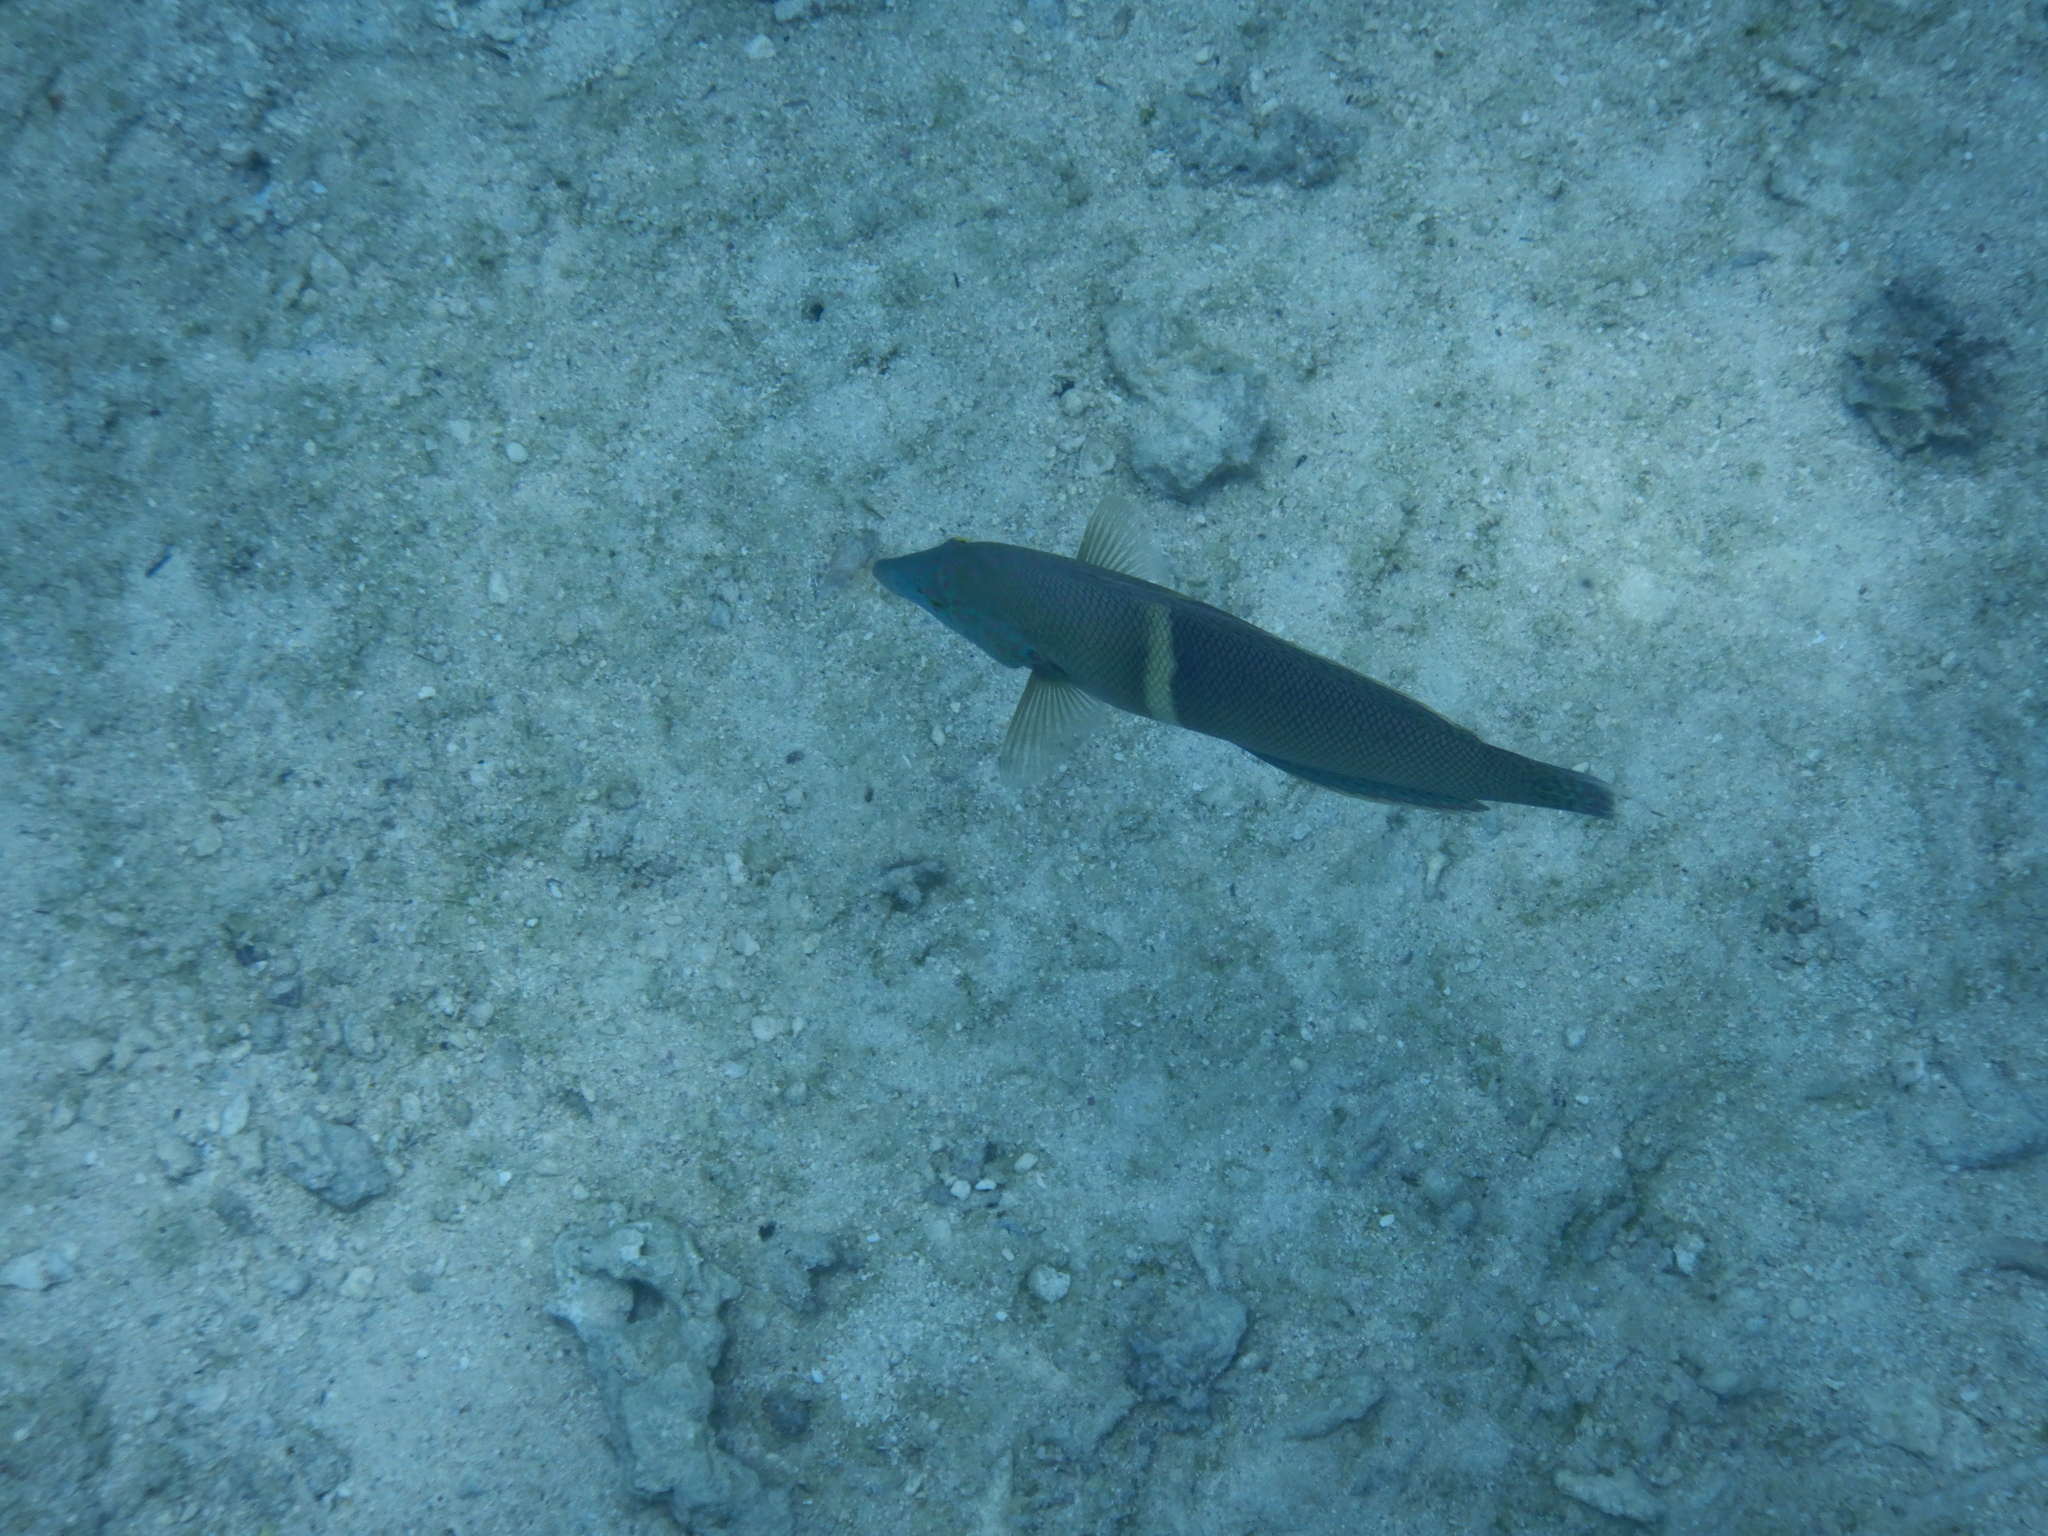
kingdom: Animalia
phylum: Chordata
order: Perciformes
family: Labridae
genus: Coris
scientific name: Coris aygula
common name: Clown coris
